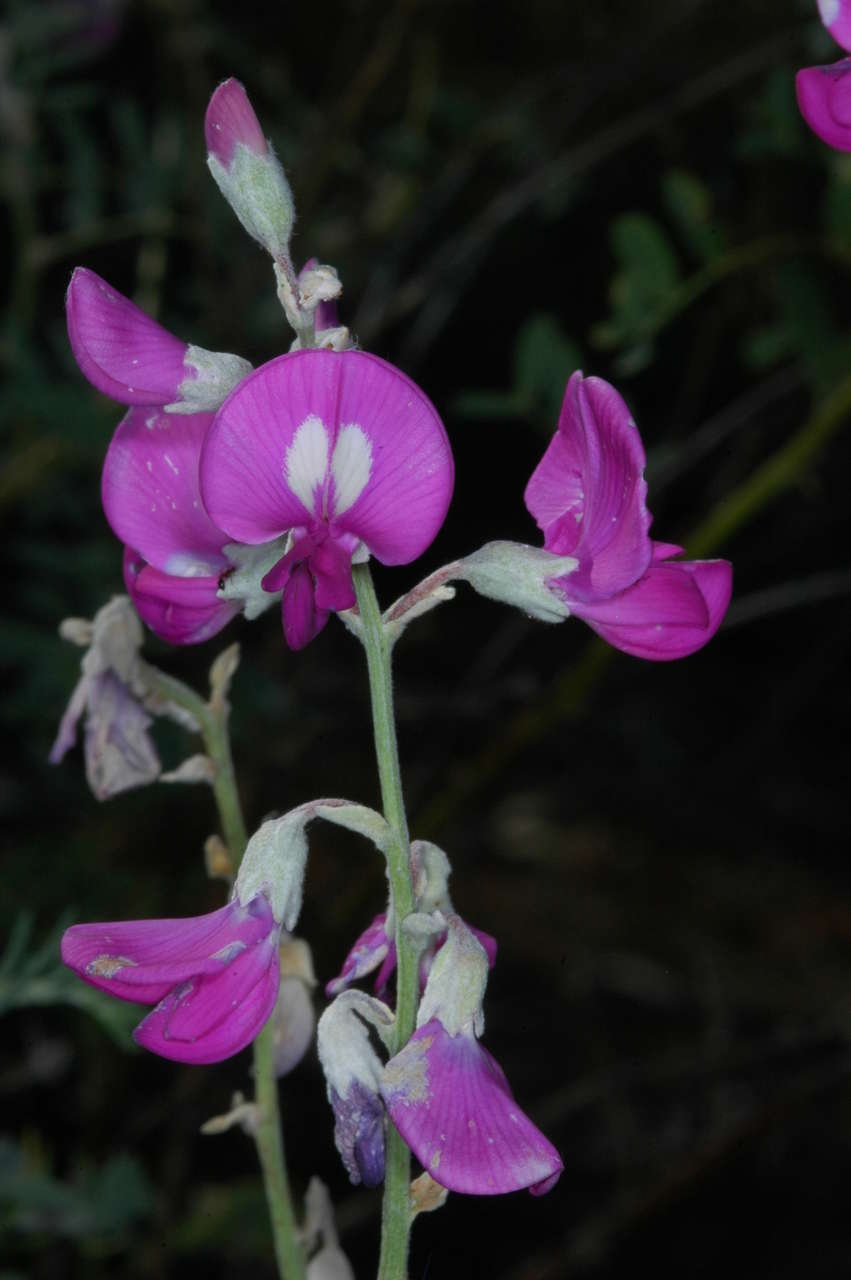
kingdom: Plantae
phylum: Tracheophyta
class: Magnoliopsida
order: Fabales
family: Fabaceae
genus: Swainsona
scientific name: Swainsona greyana
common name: Darling-pea
